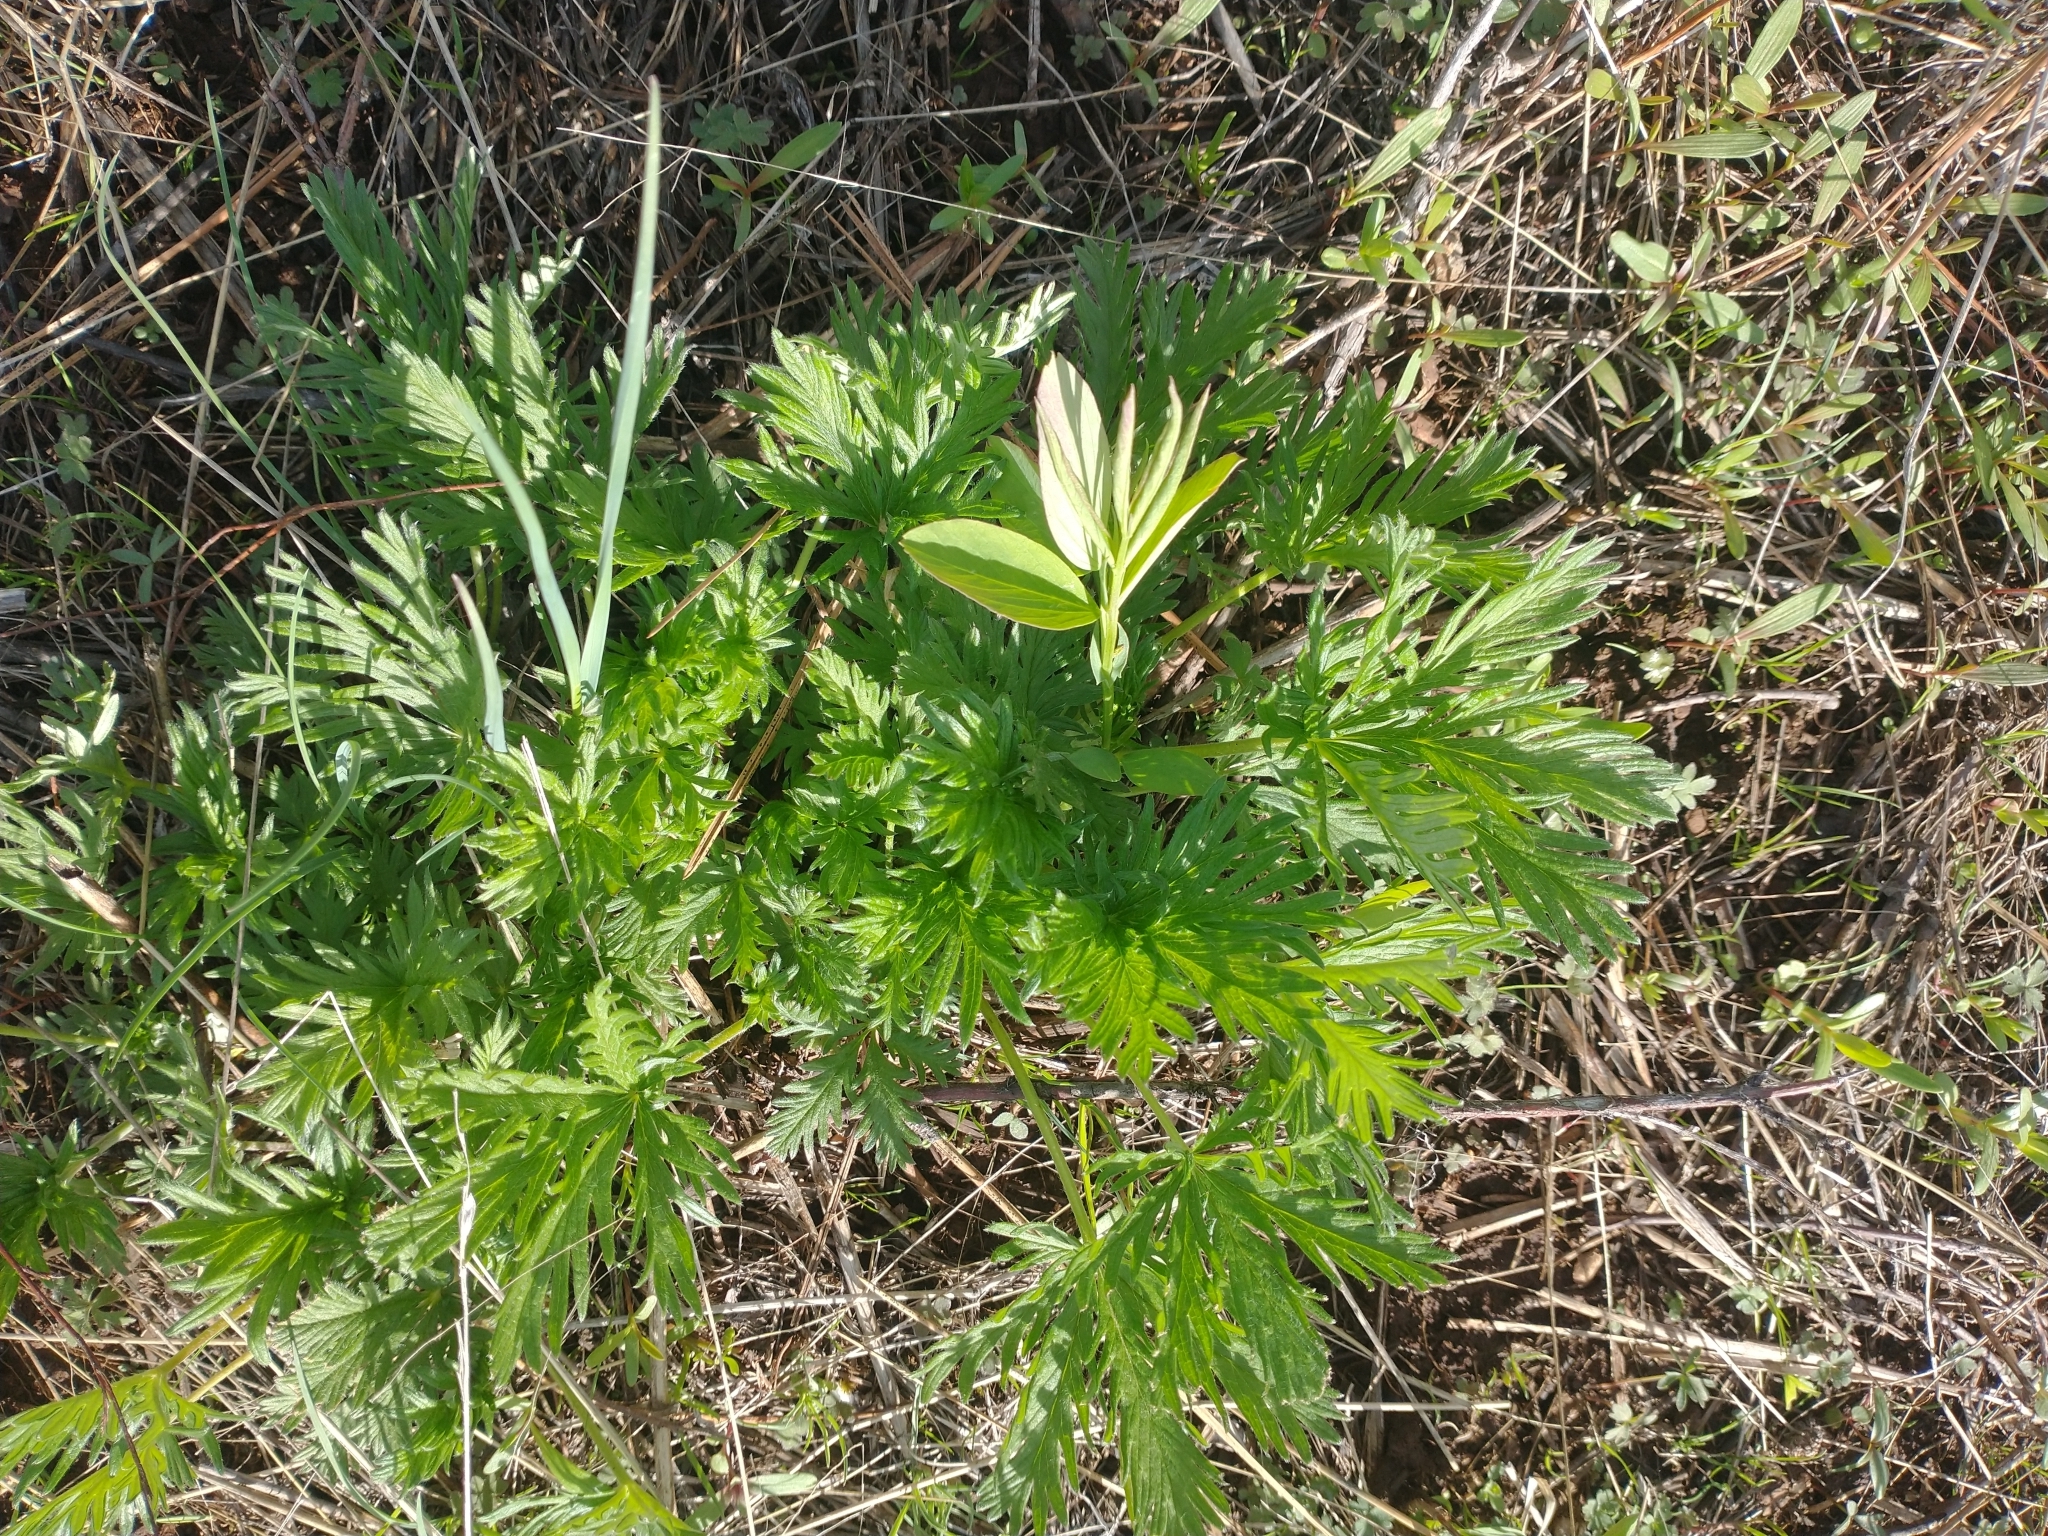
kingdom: Plantae
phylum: Tracheophyta
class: Magnoliopsida
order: Rosales
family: Rosaceae
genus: Potentilla
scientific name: Potentilla gracilis
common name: Graceful cinquefoil
